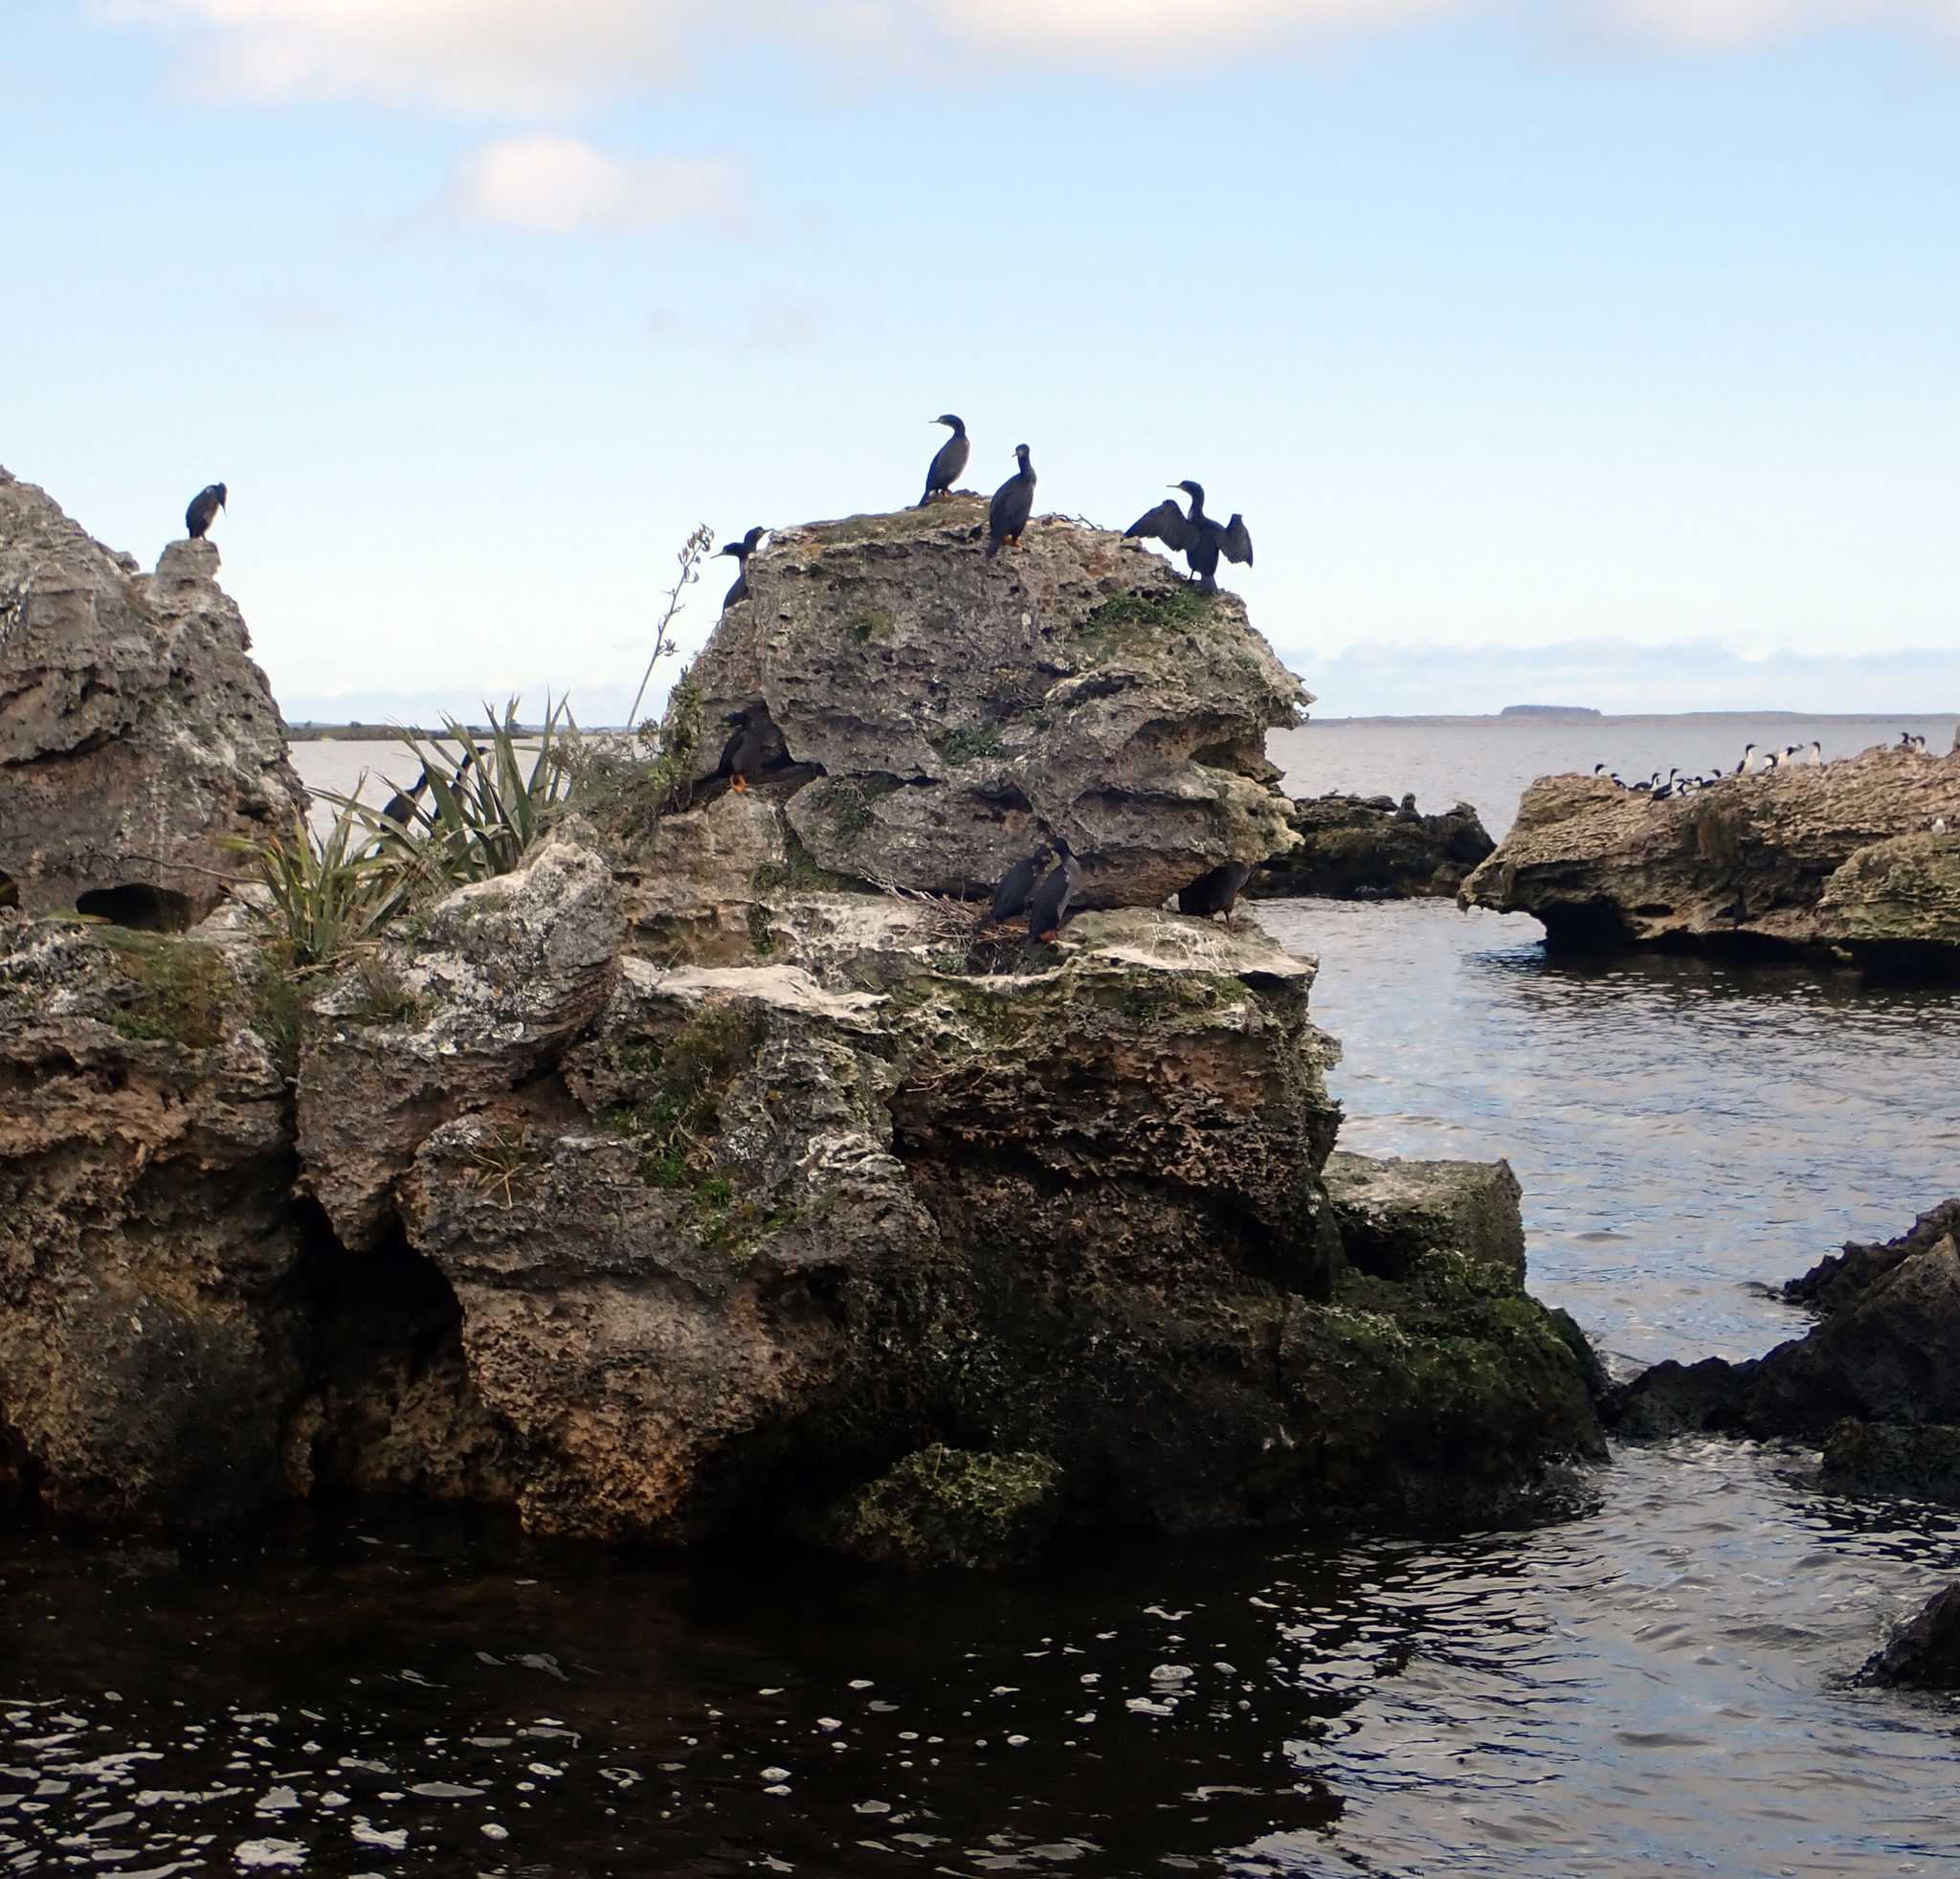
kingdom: Animalia
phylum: Chordata
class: Aves
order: Suliformes
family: Phalacrocoracidae
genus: Leucocarbo
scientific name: Leucocarbo onslowi
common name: Chatham shag
